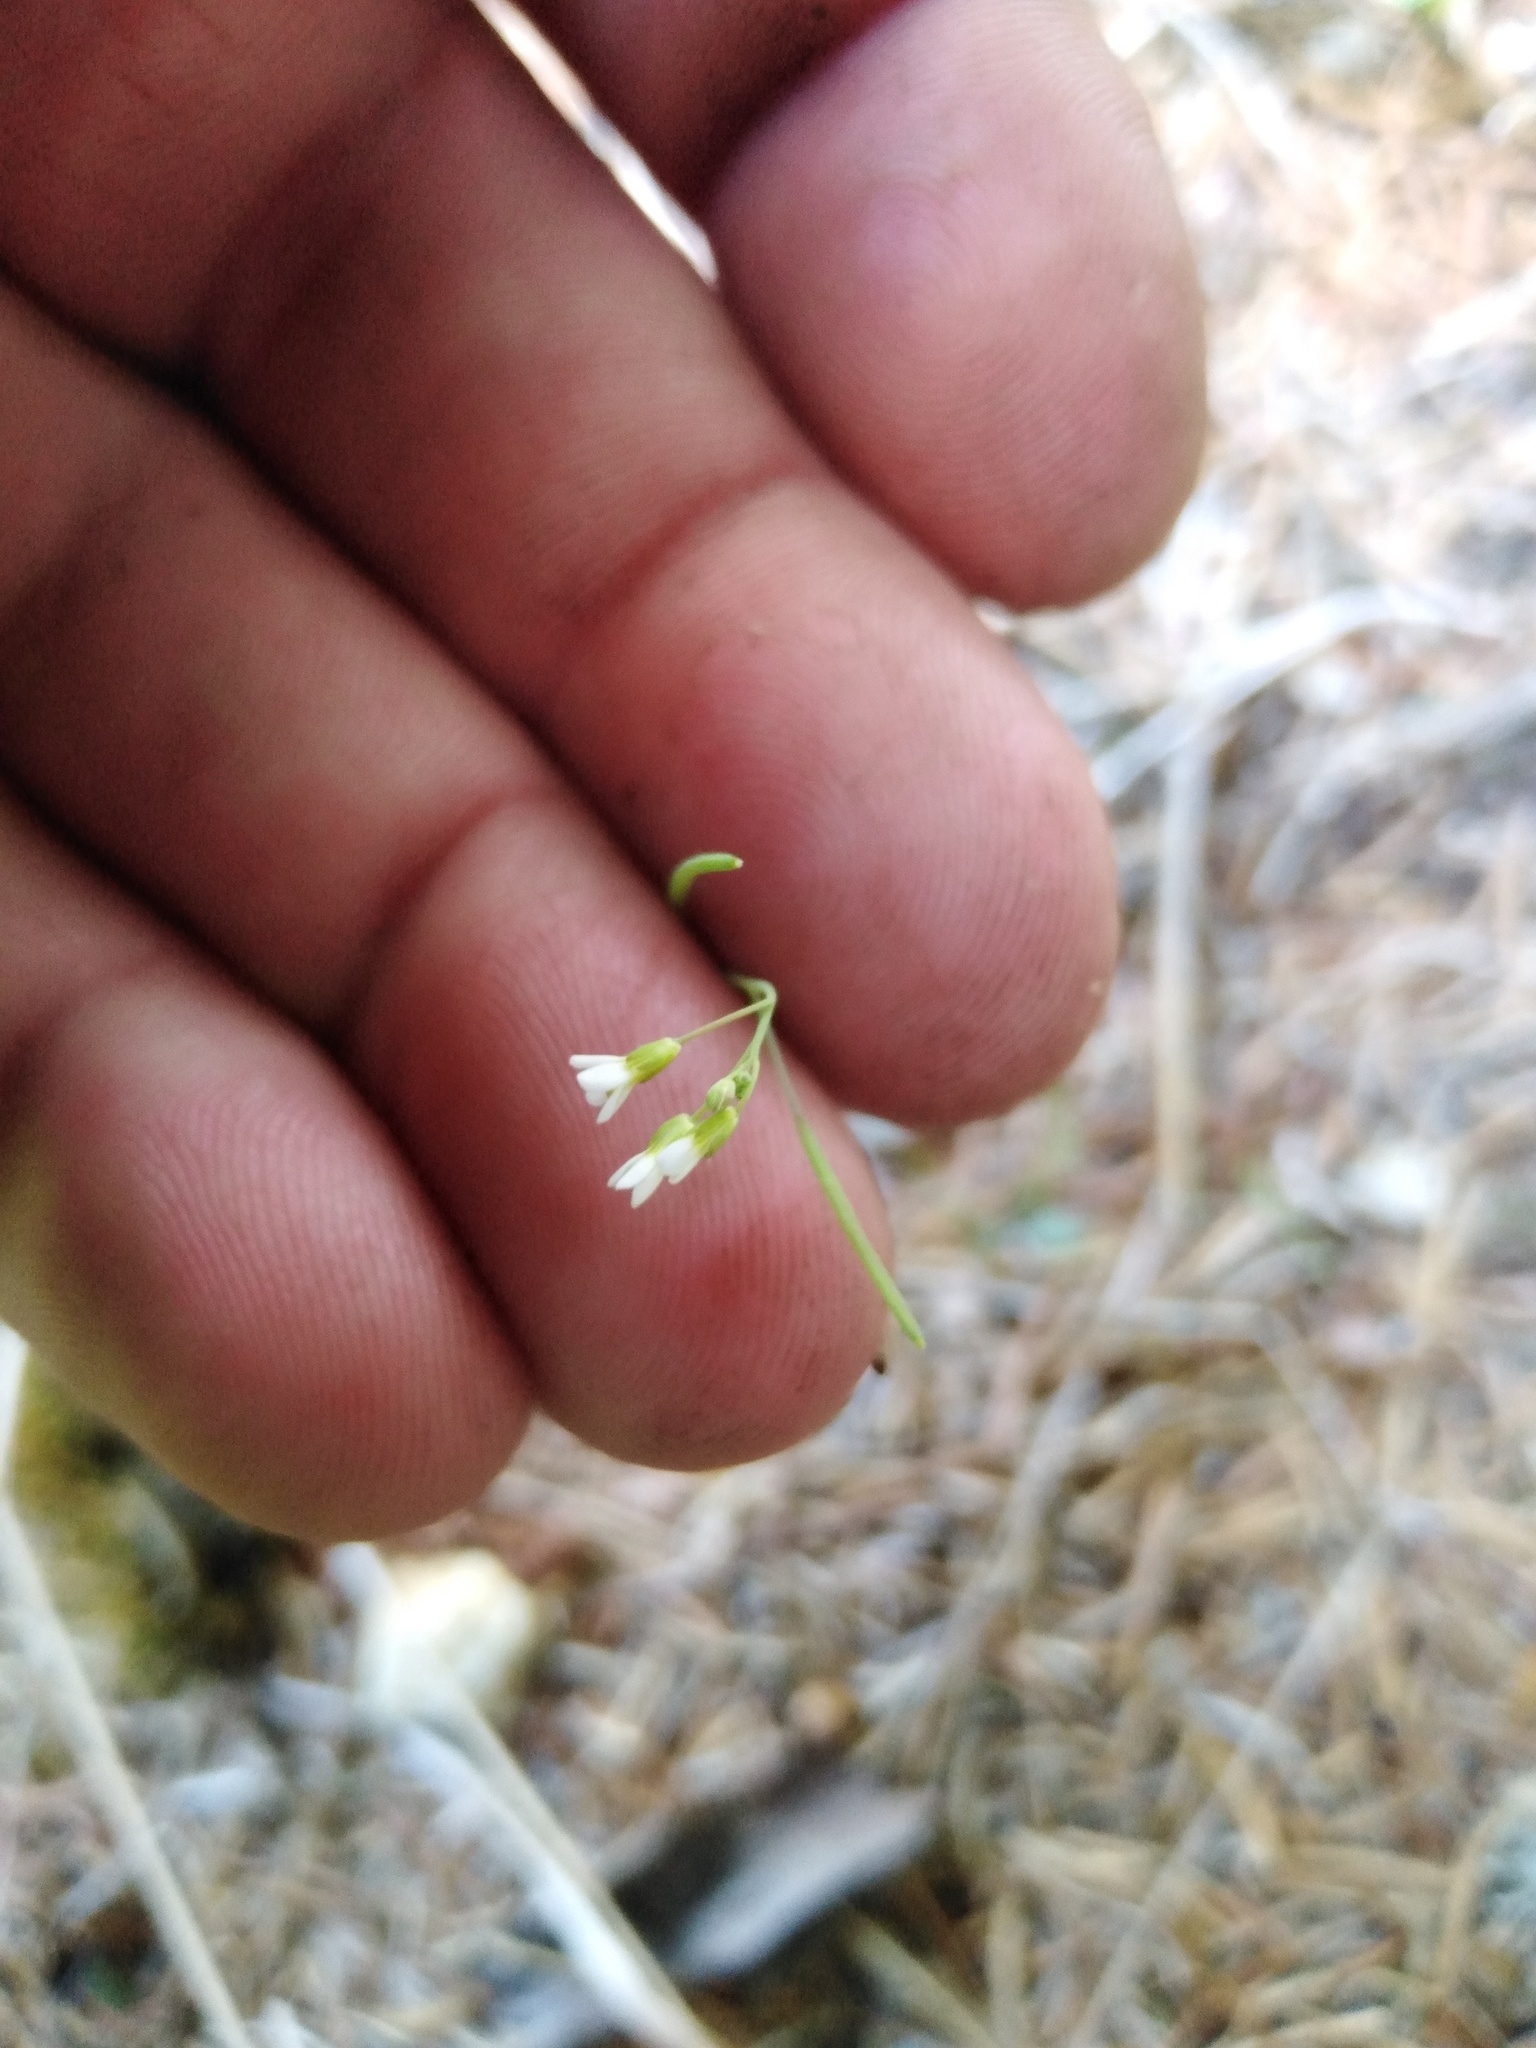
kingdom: Plantae
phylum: Tracheophyta
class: Magnoliopsida
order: Brassicales
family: Brassicaceae
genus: Arabidopsis
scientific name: Arabidopsis thaliana
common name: Thale cress
